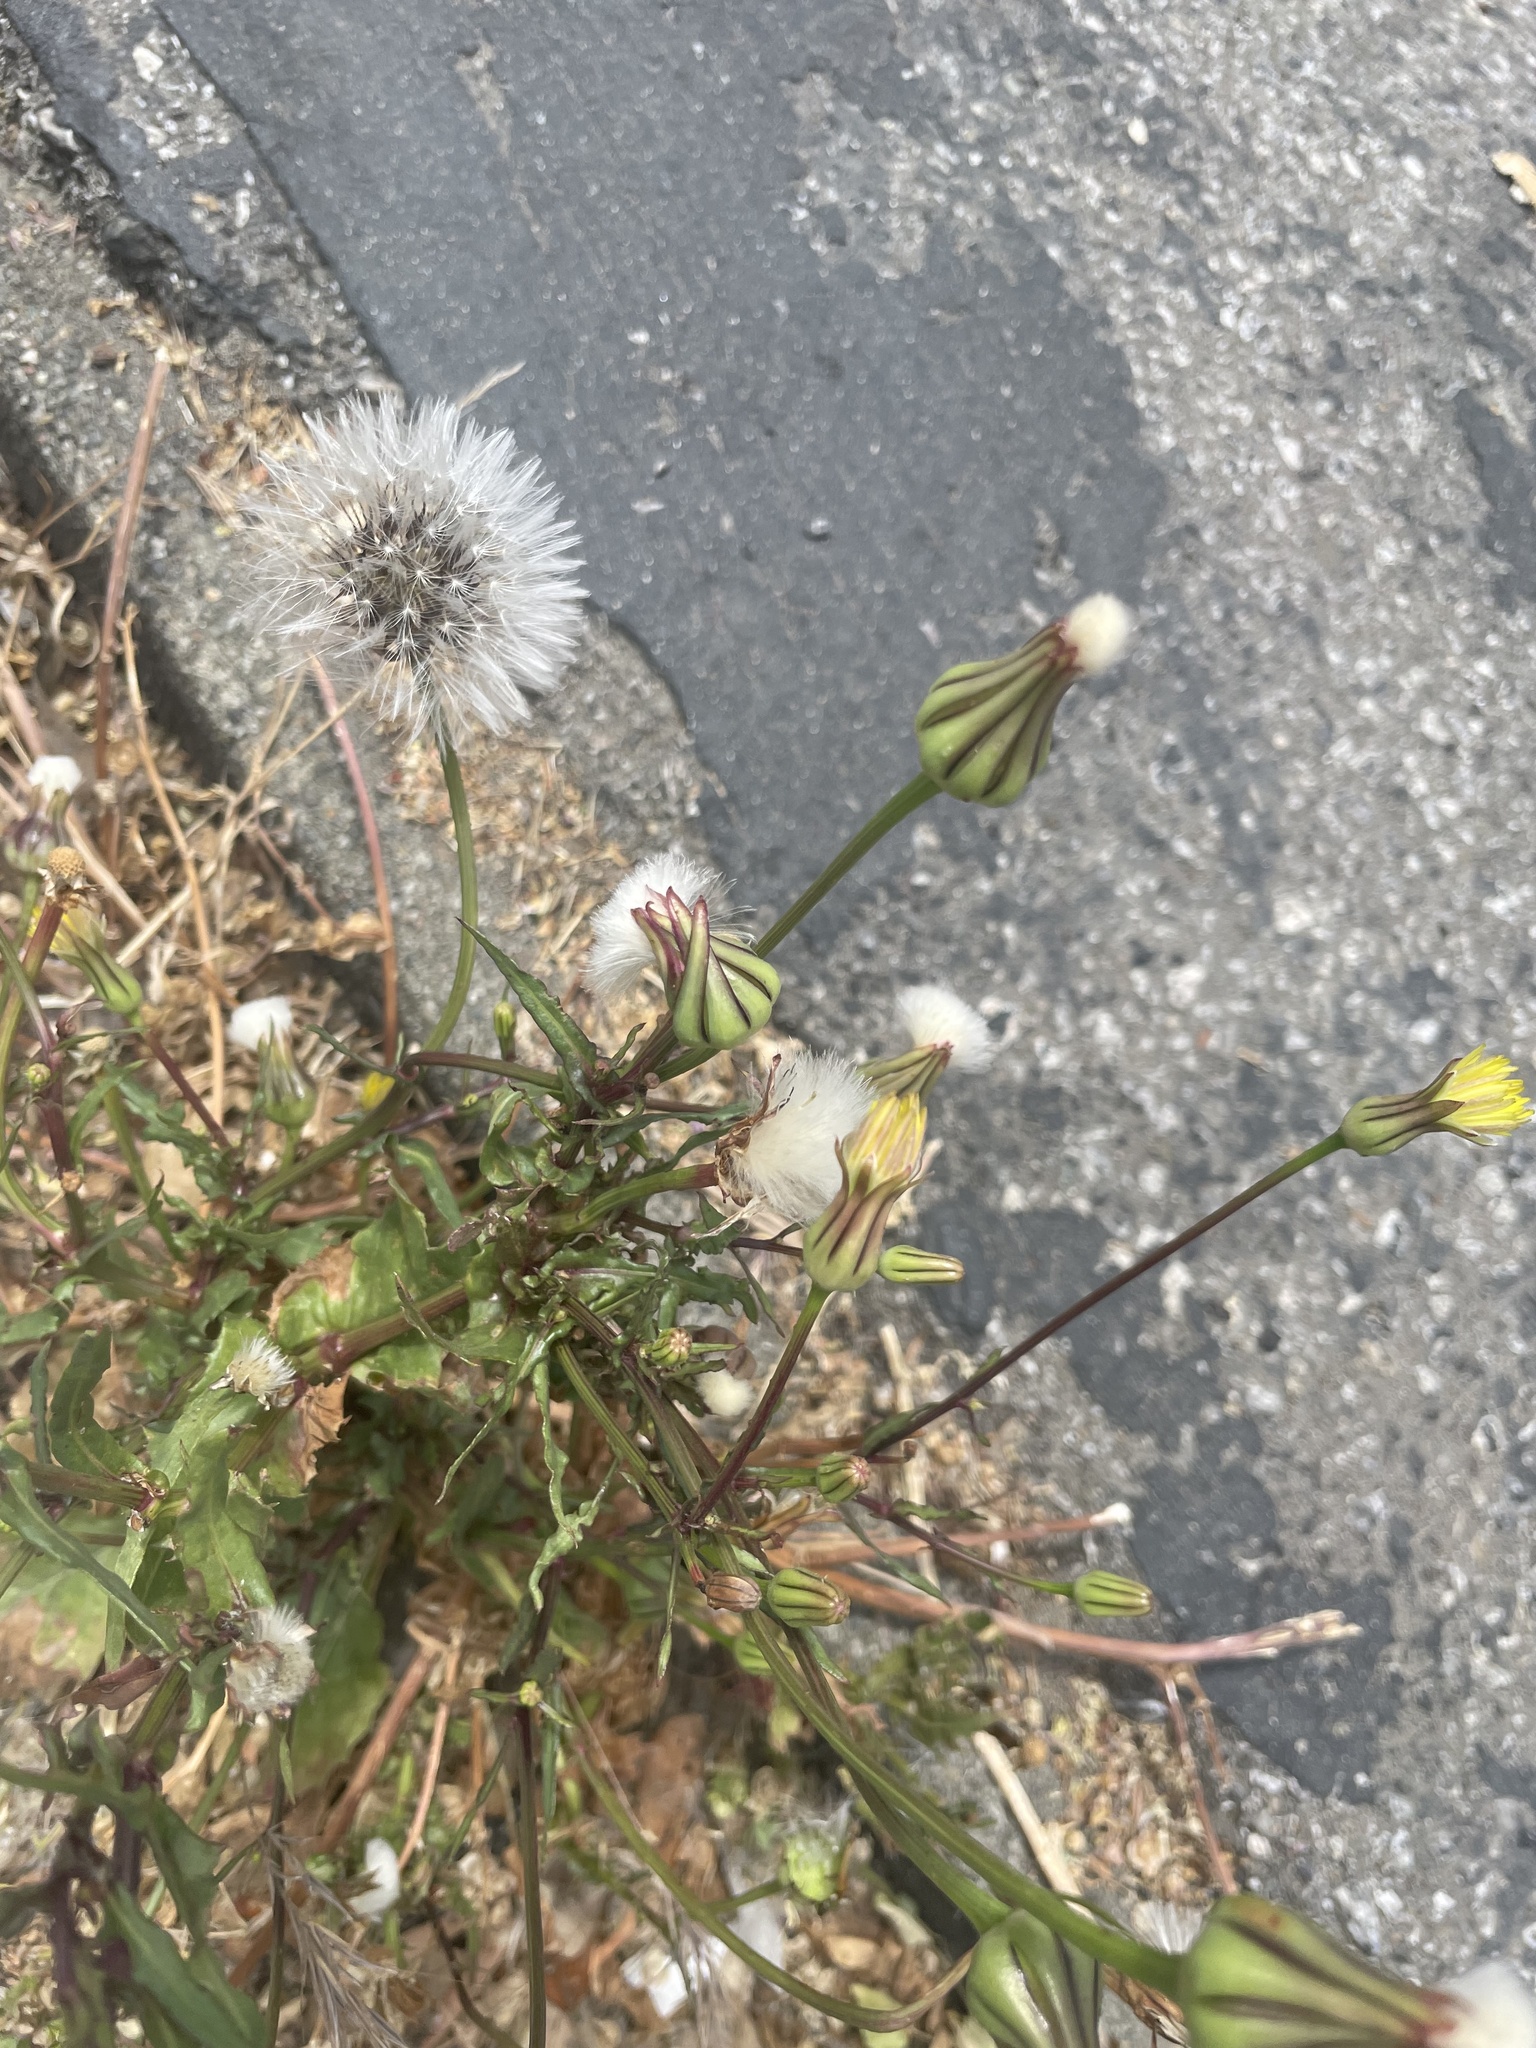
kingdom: Plantae
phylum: Tracheophyta
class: Magnoliopsida
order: Asterales
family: Asteraceae
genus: Urospermum
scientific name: Urospermum picroides
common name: False hawkbit
